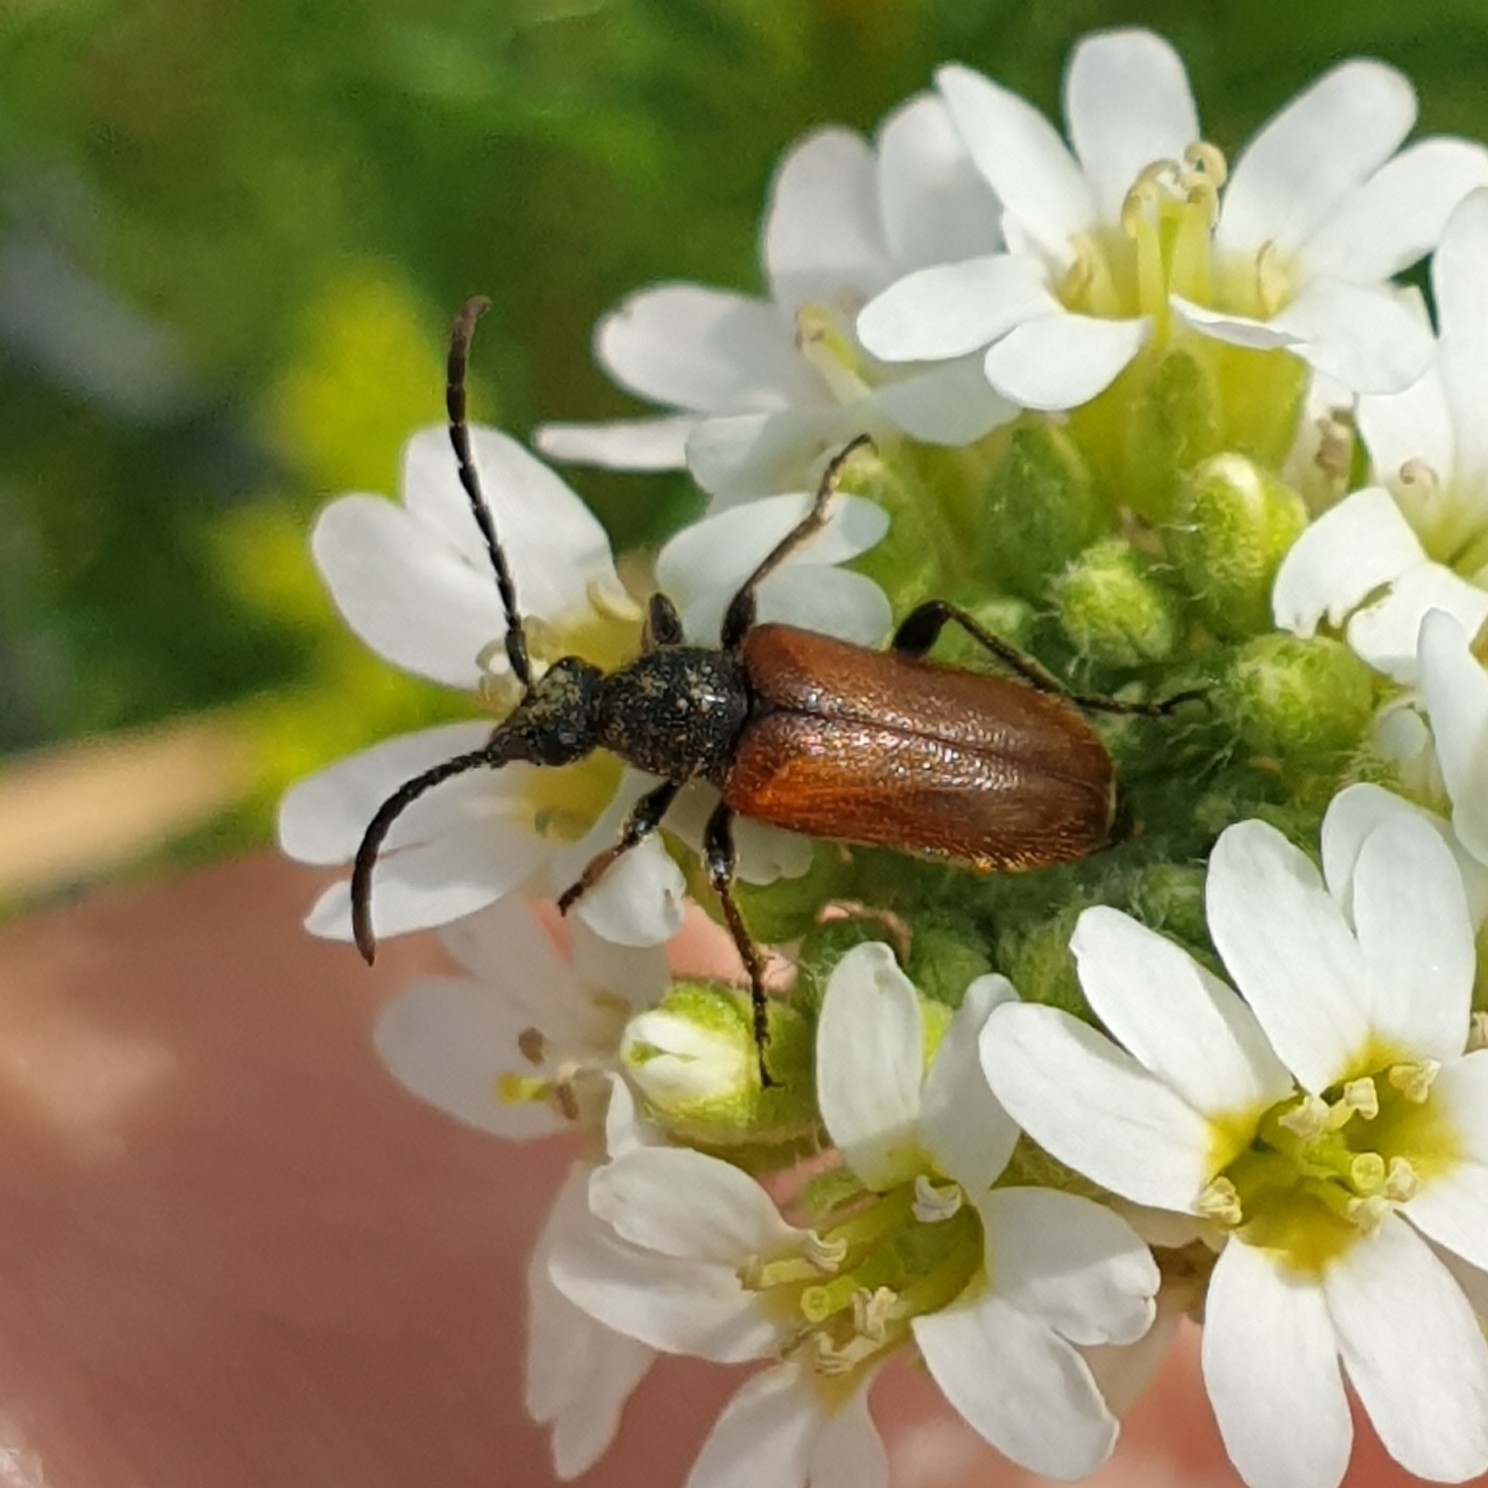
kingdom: Animalia
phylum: Arthropoda
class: Insecta
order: Coleoptera
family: Cerambycidae
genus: Pseudovadonia
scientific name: Pseudovadonia livida
